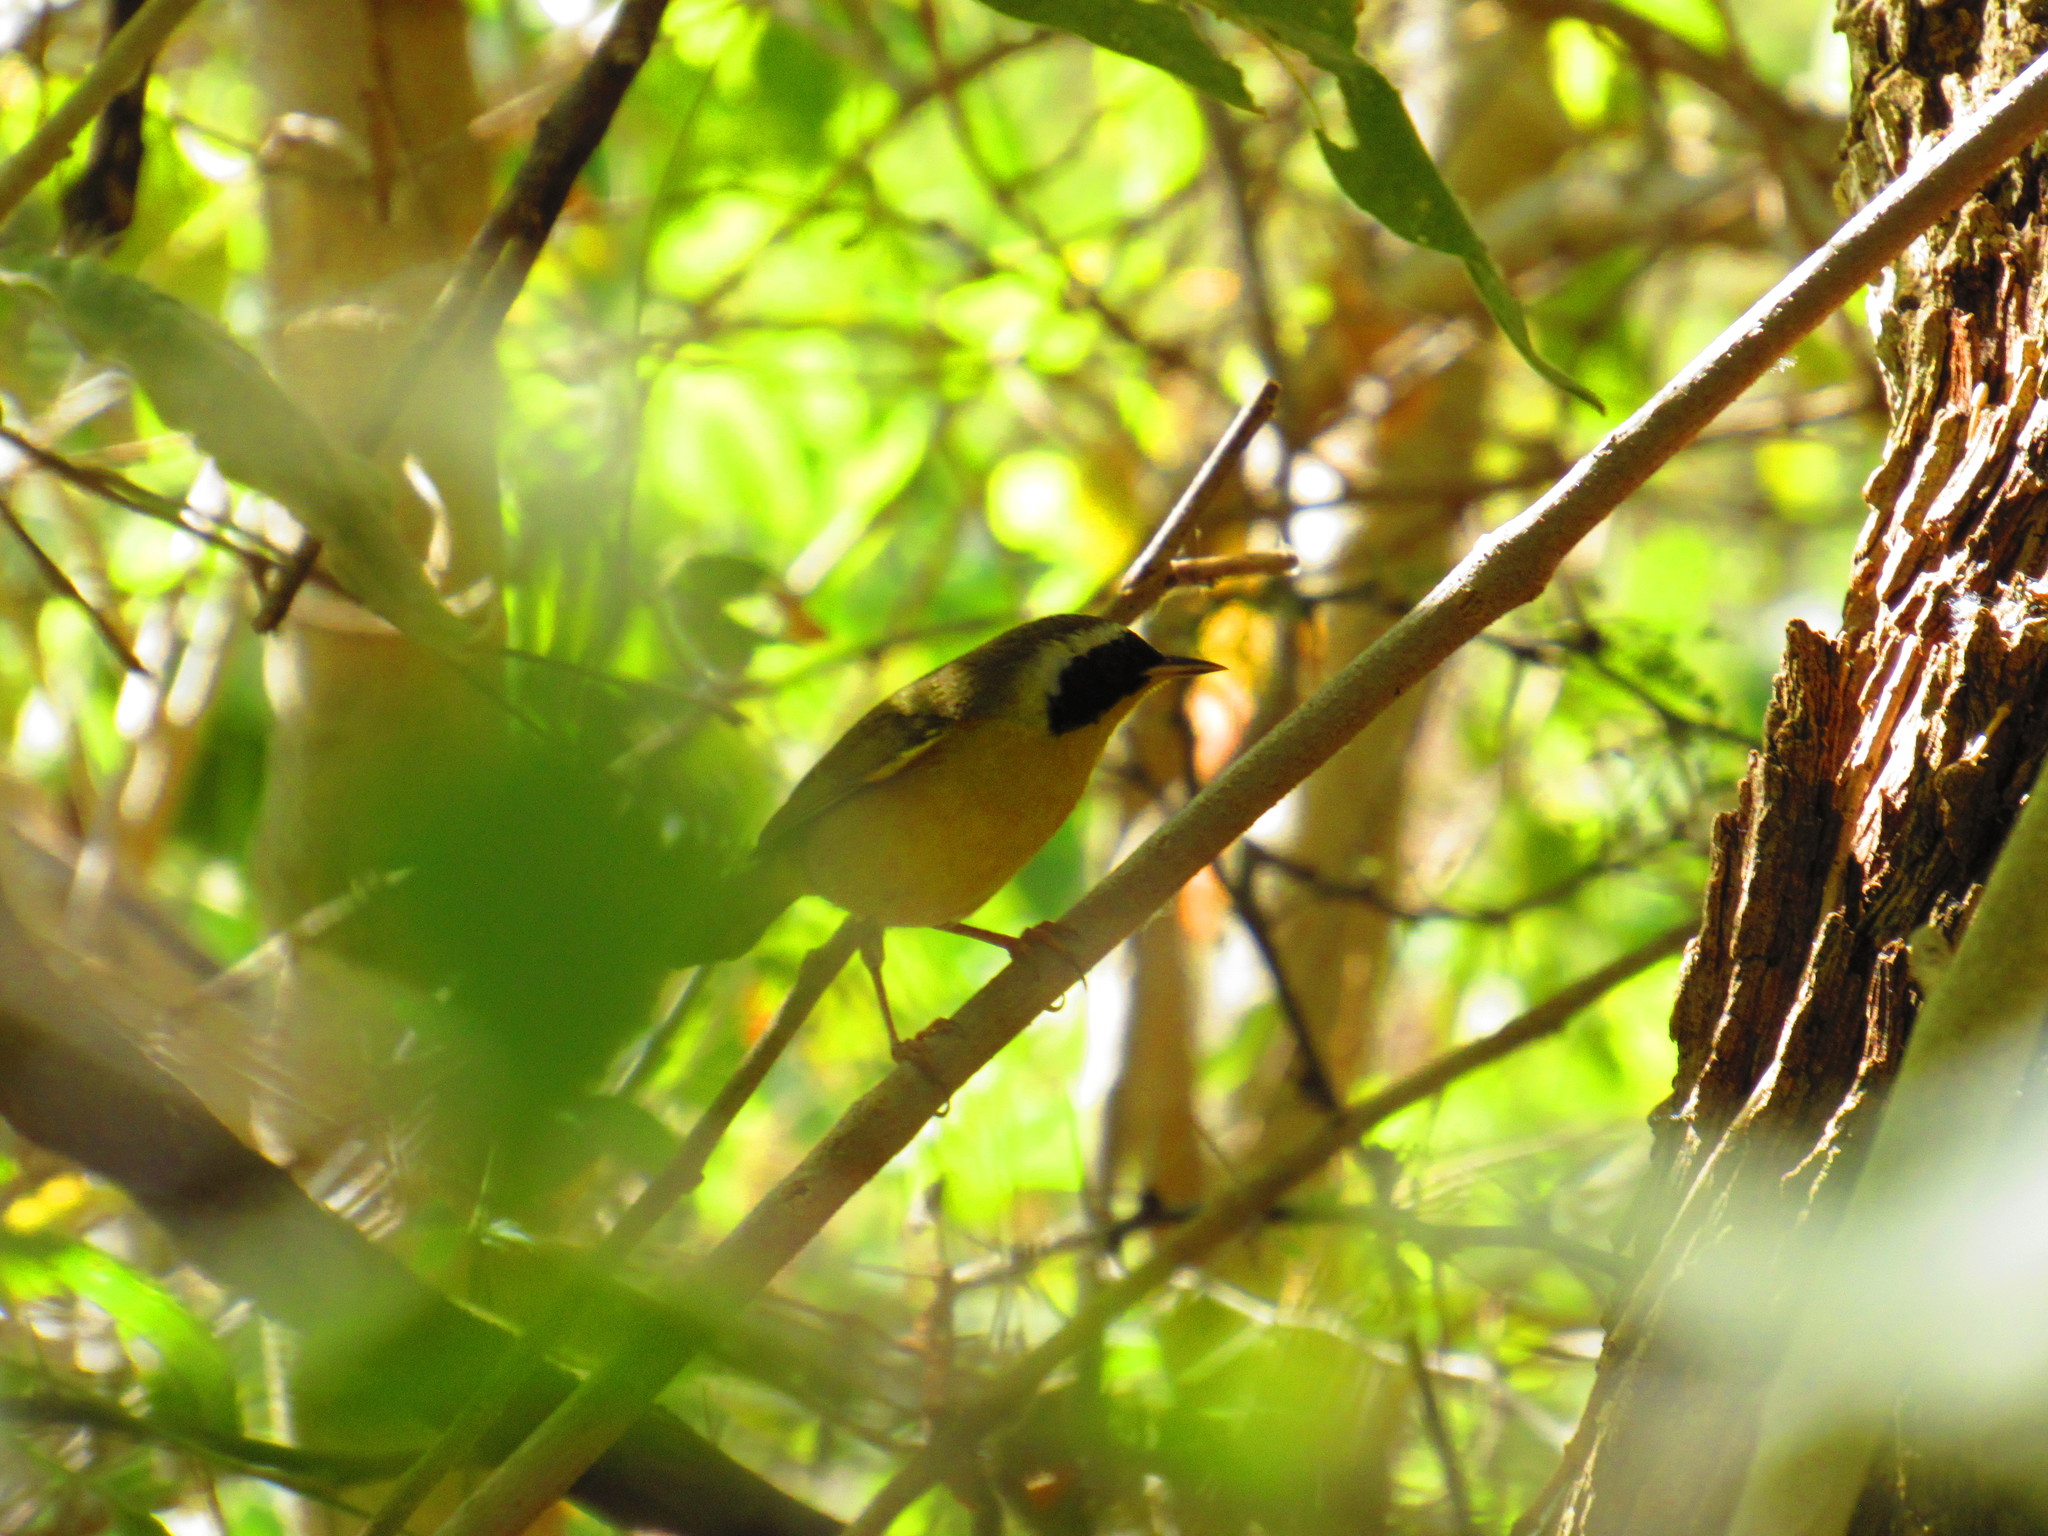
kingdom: Animalia
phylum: Chordata
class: Aves
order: Passeriformes
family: Parulidae
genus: Geothlypis
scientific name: Geothlypis trichas
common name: Common yellowthroat
